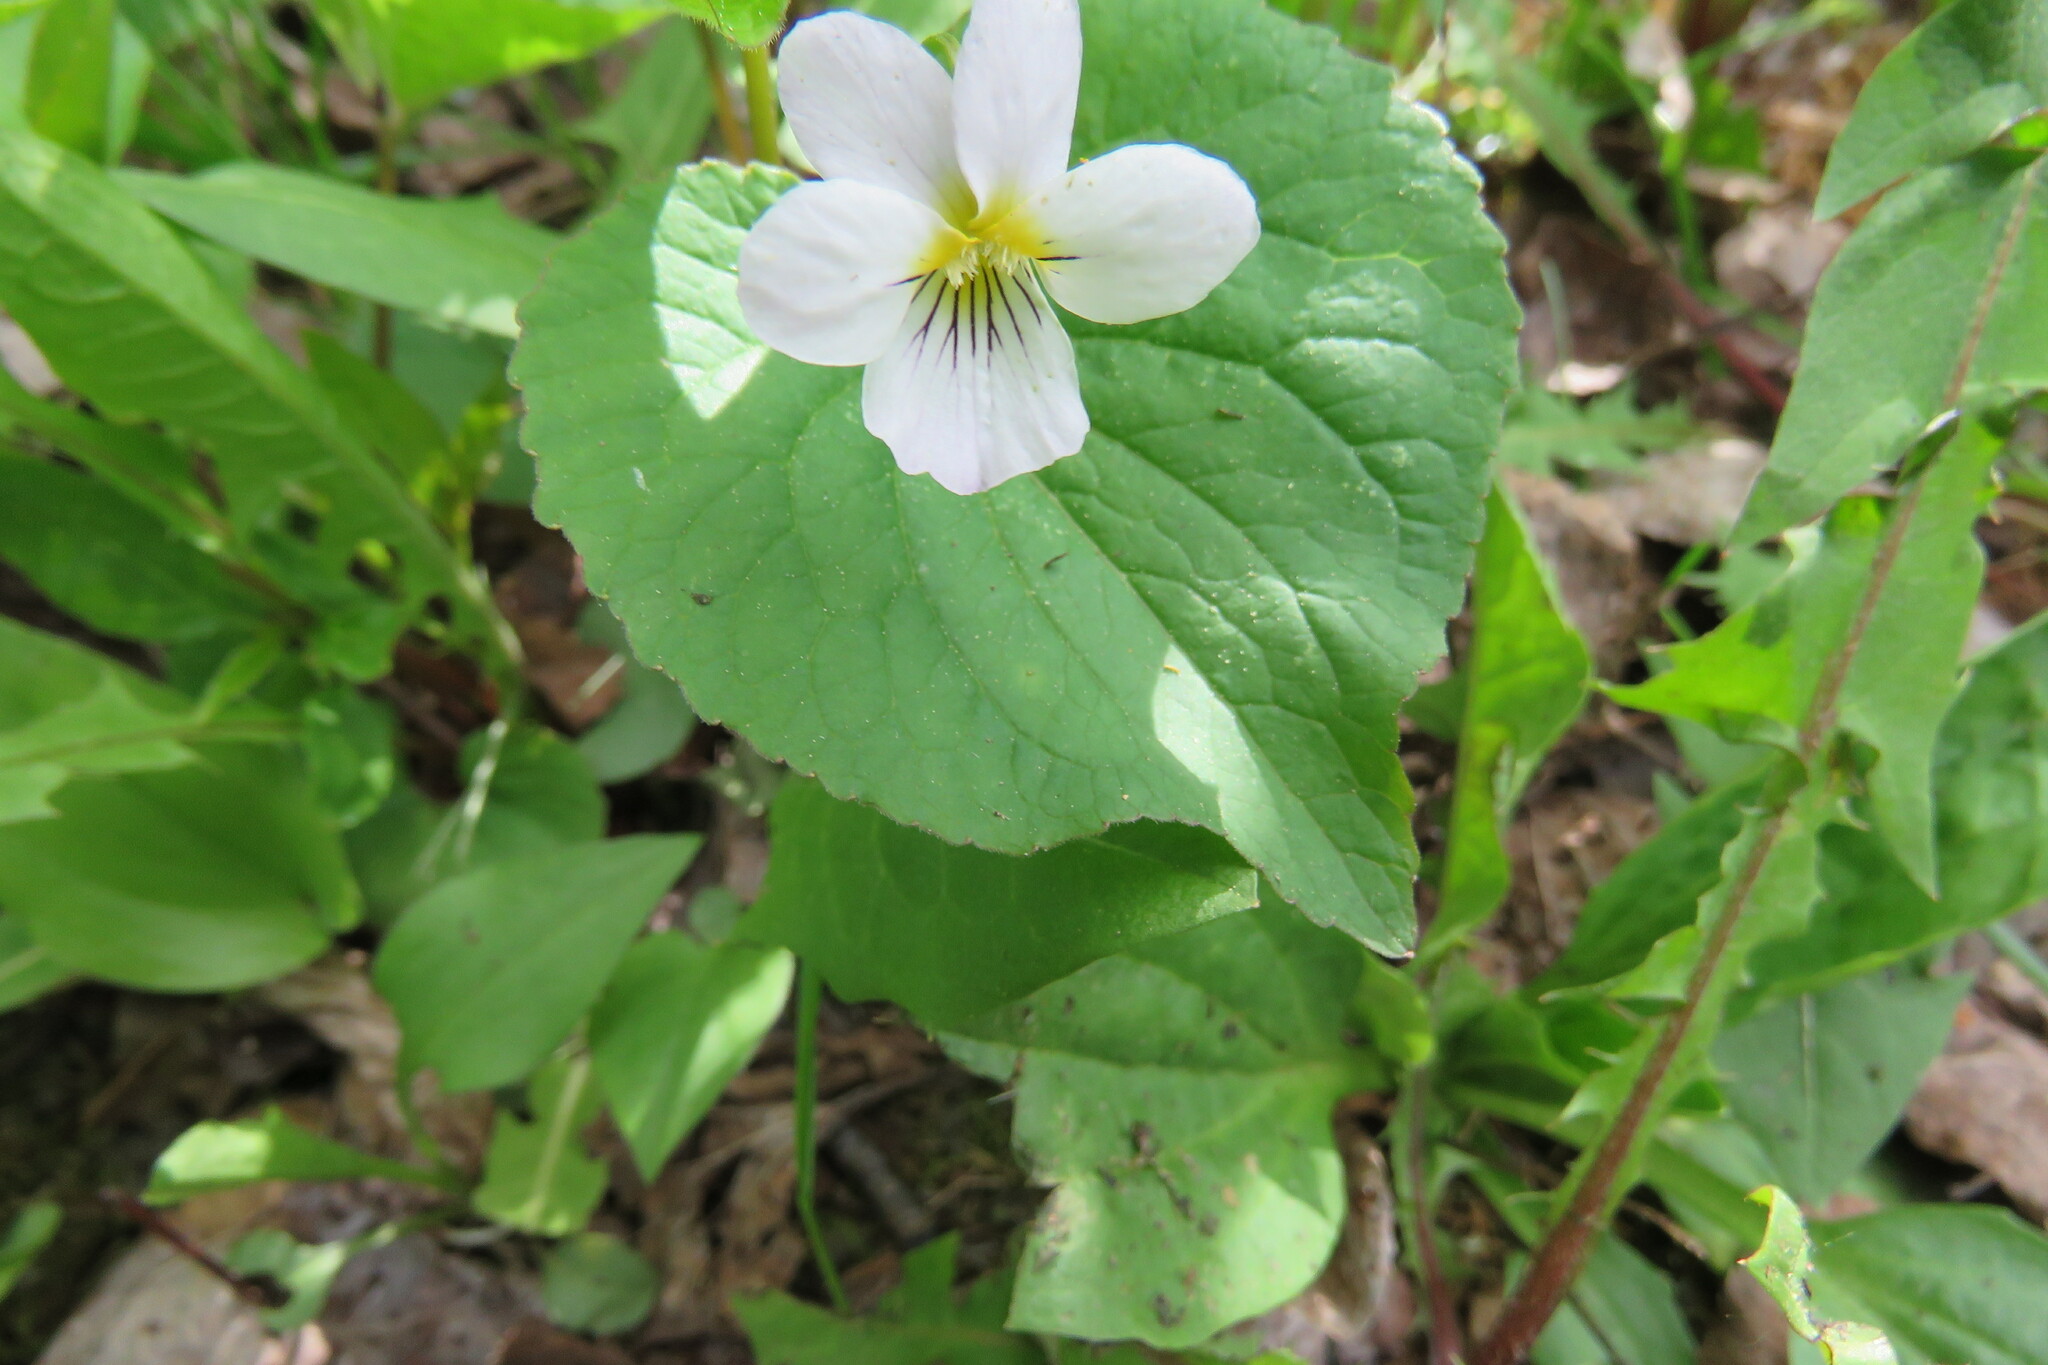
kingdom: Plantae
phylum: Tracheophyta
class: Magnoliopsida
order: Malpighiales
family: Violaceae
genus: Viola
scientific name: Viola canadensis
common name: Canada violet
